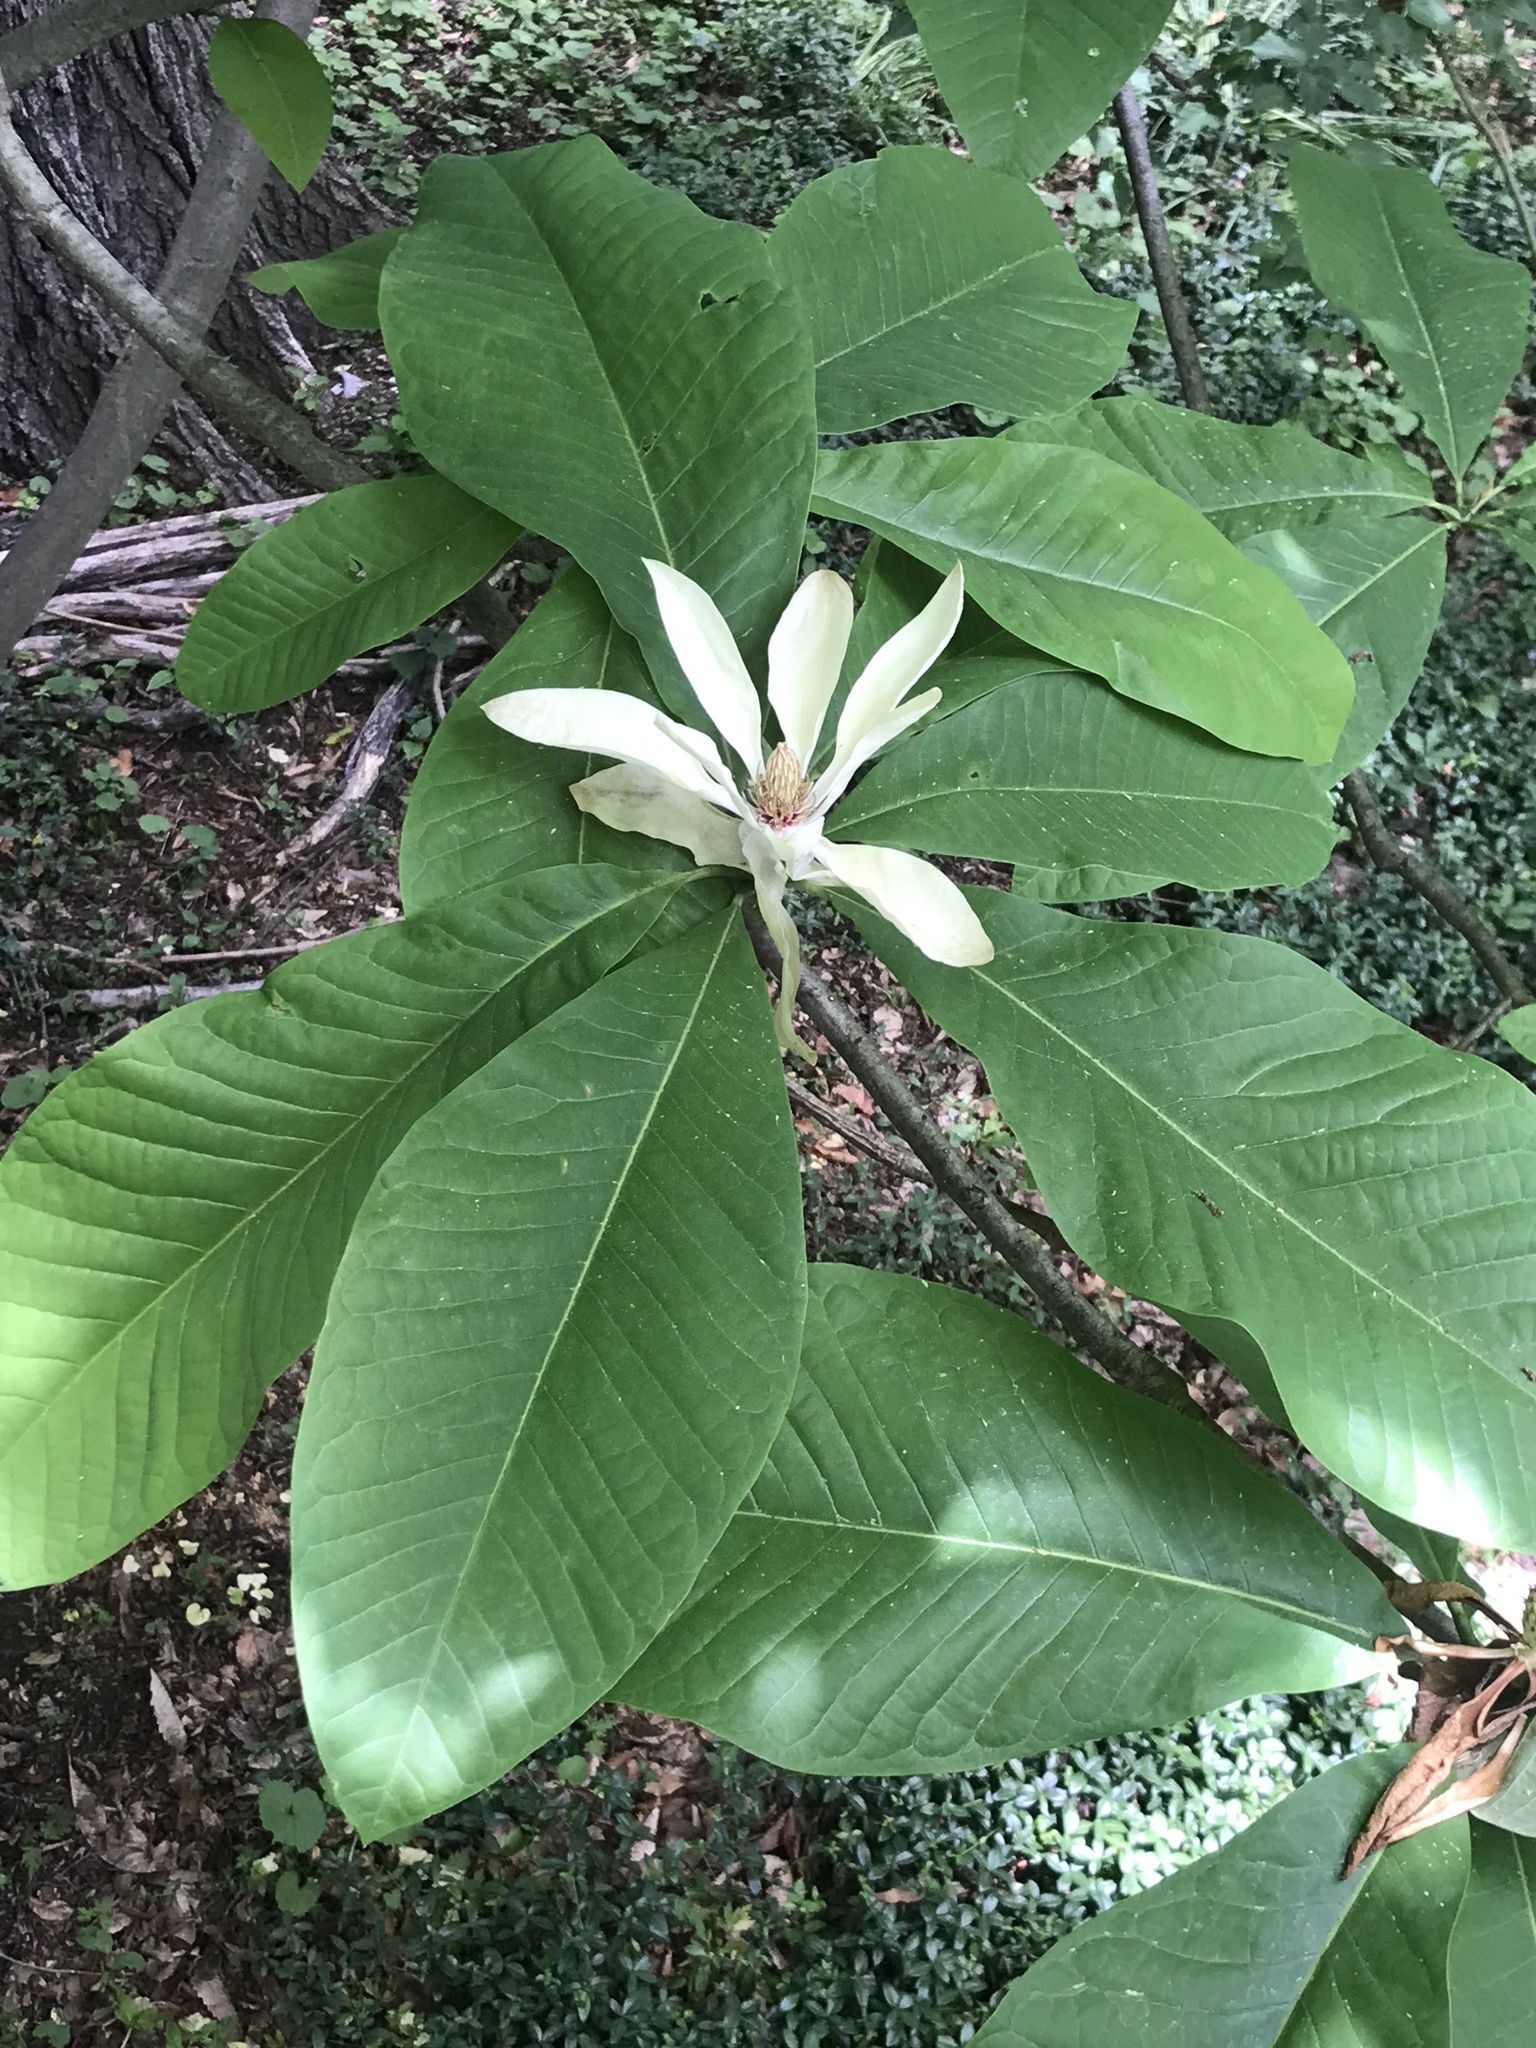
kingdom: Plantae
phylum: Tracheophyta
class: Magnoliopsida
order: Magnoliales
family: Magnoliaceae
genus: Magnolia
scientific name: Magnolia tripetala
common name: Umbrella magnolia
